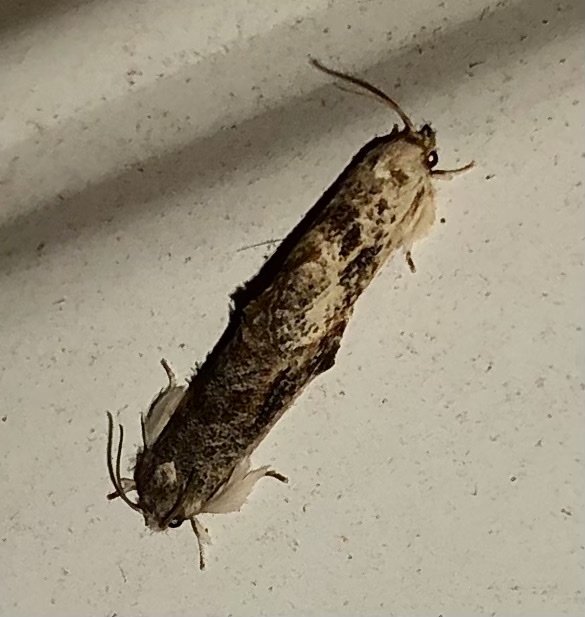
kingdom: Animalia
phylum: Arthropoda
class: Insecta
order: Lepidoptera
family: Tineidae
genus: Acrolophus
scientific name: Acrolophus mycetophagus
